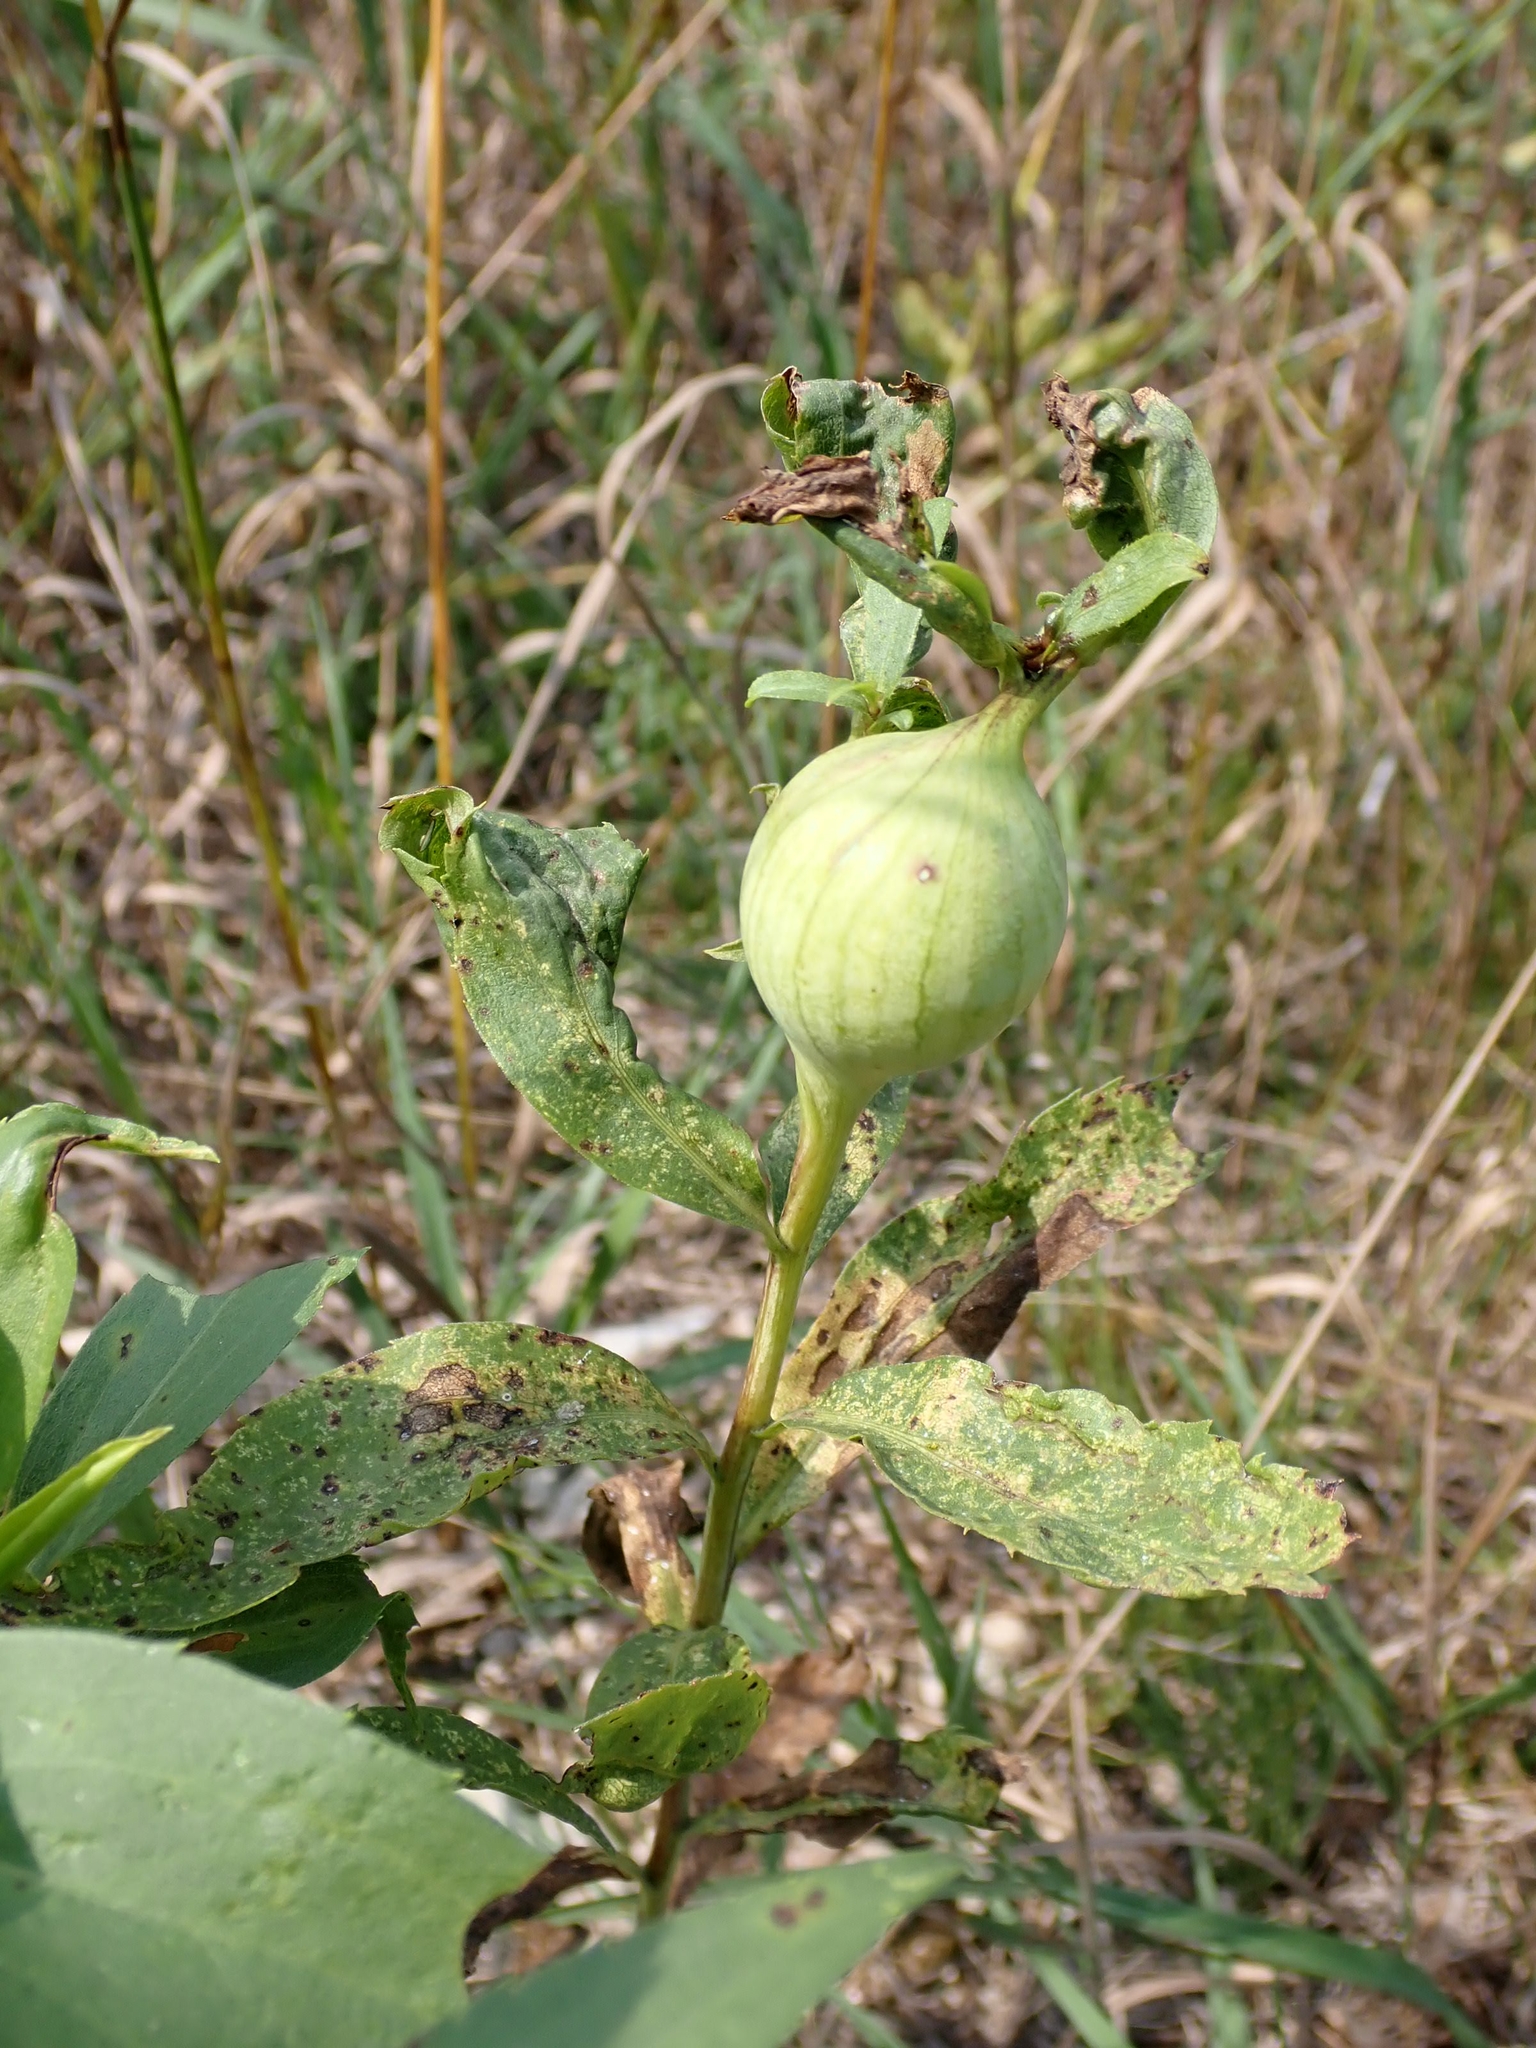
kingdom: Animalia
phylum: Arthropoda
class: Insecta
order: Diptera
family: Tephritidae
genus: Eurosta
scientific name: Eurosta solidaginis
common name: Goldenrod gall fly
